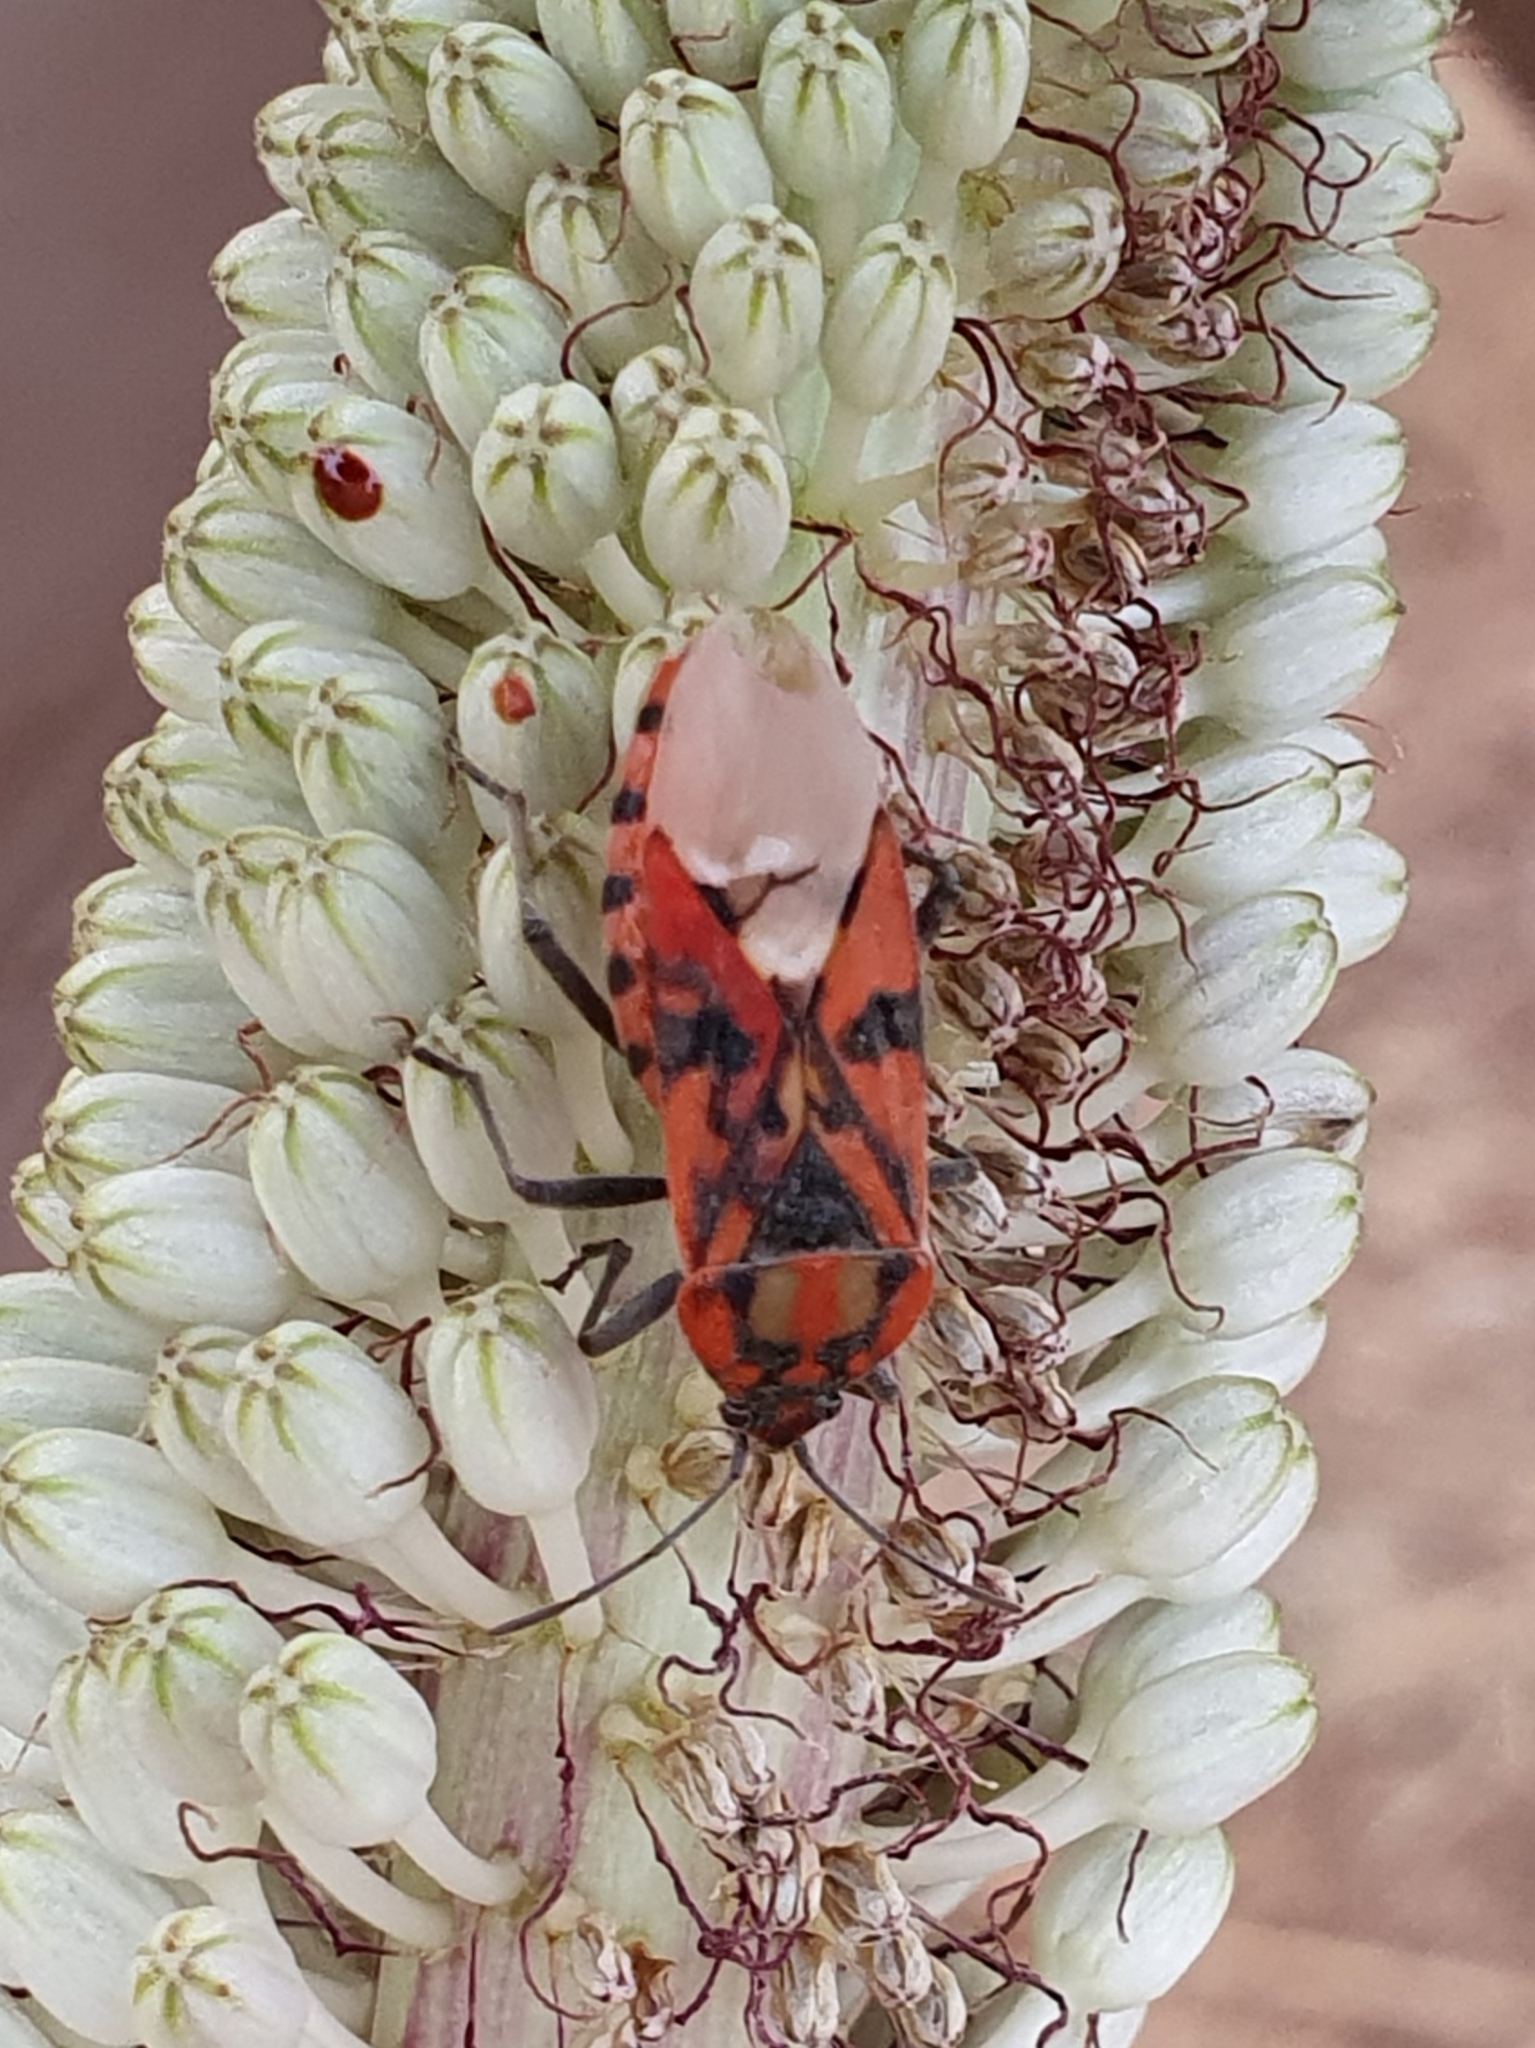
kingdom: Animalia
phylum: Arthropoda
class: Insecta
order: Hemiptera
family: Lygaeidae
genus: Spilostethus
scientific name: Spilostethus pandurus
